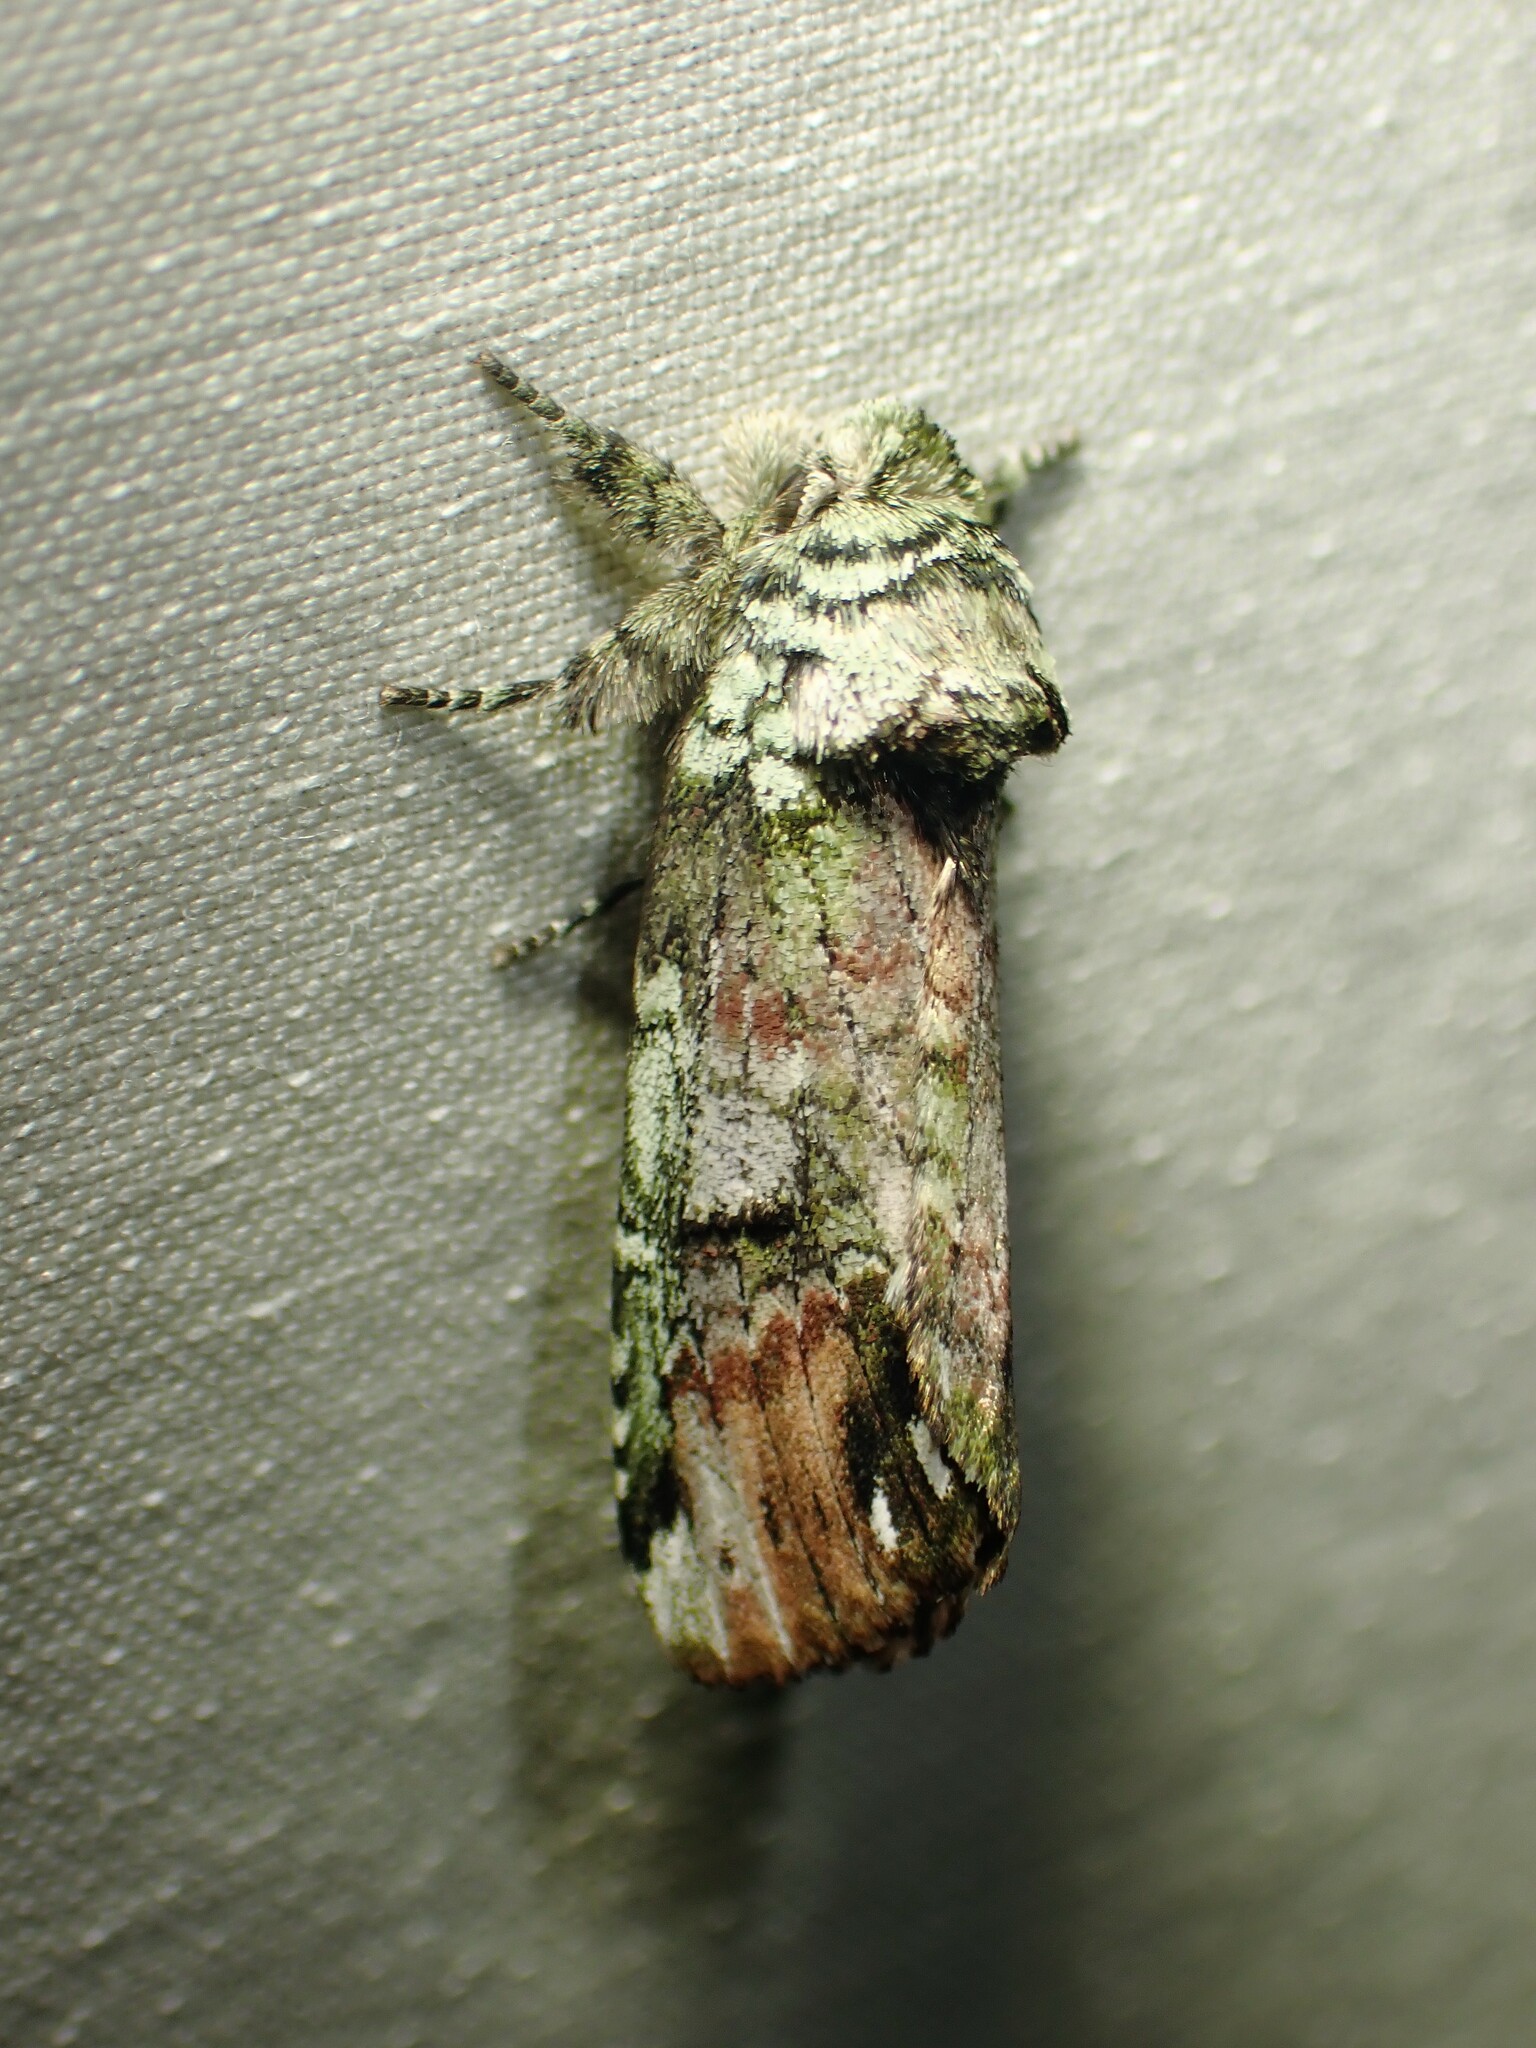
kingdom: Animalia
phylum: Arthropoda
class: Insecta
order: Lepidoptera
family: Notodontidae
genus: Schizura
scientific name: Schizura
